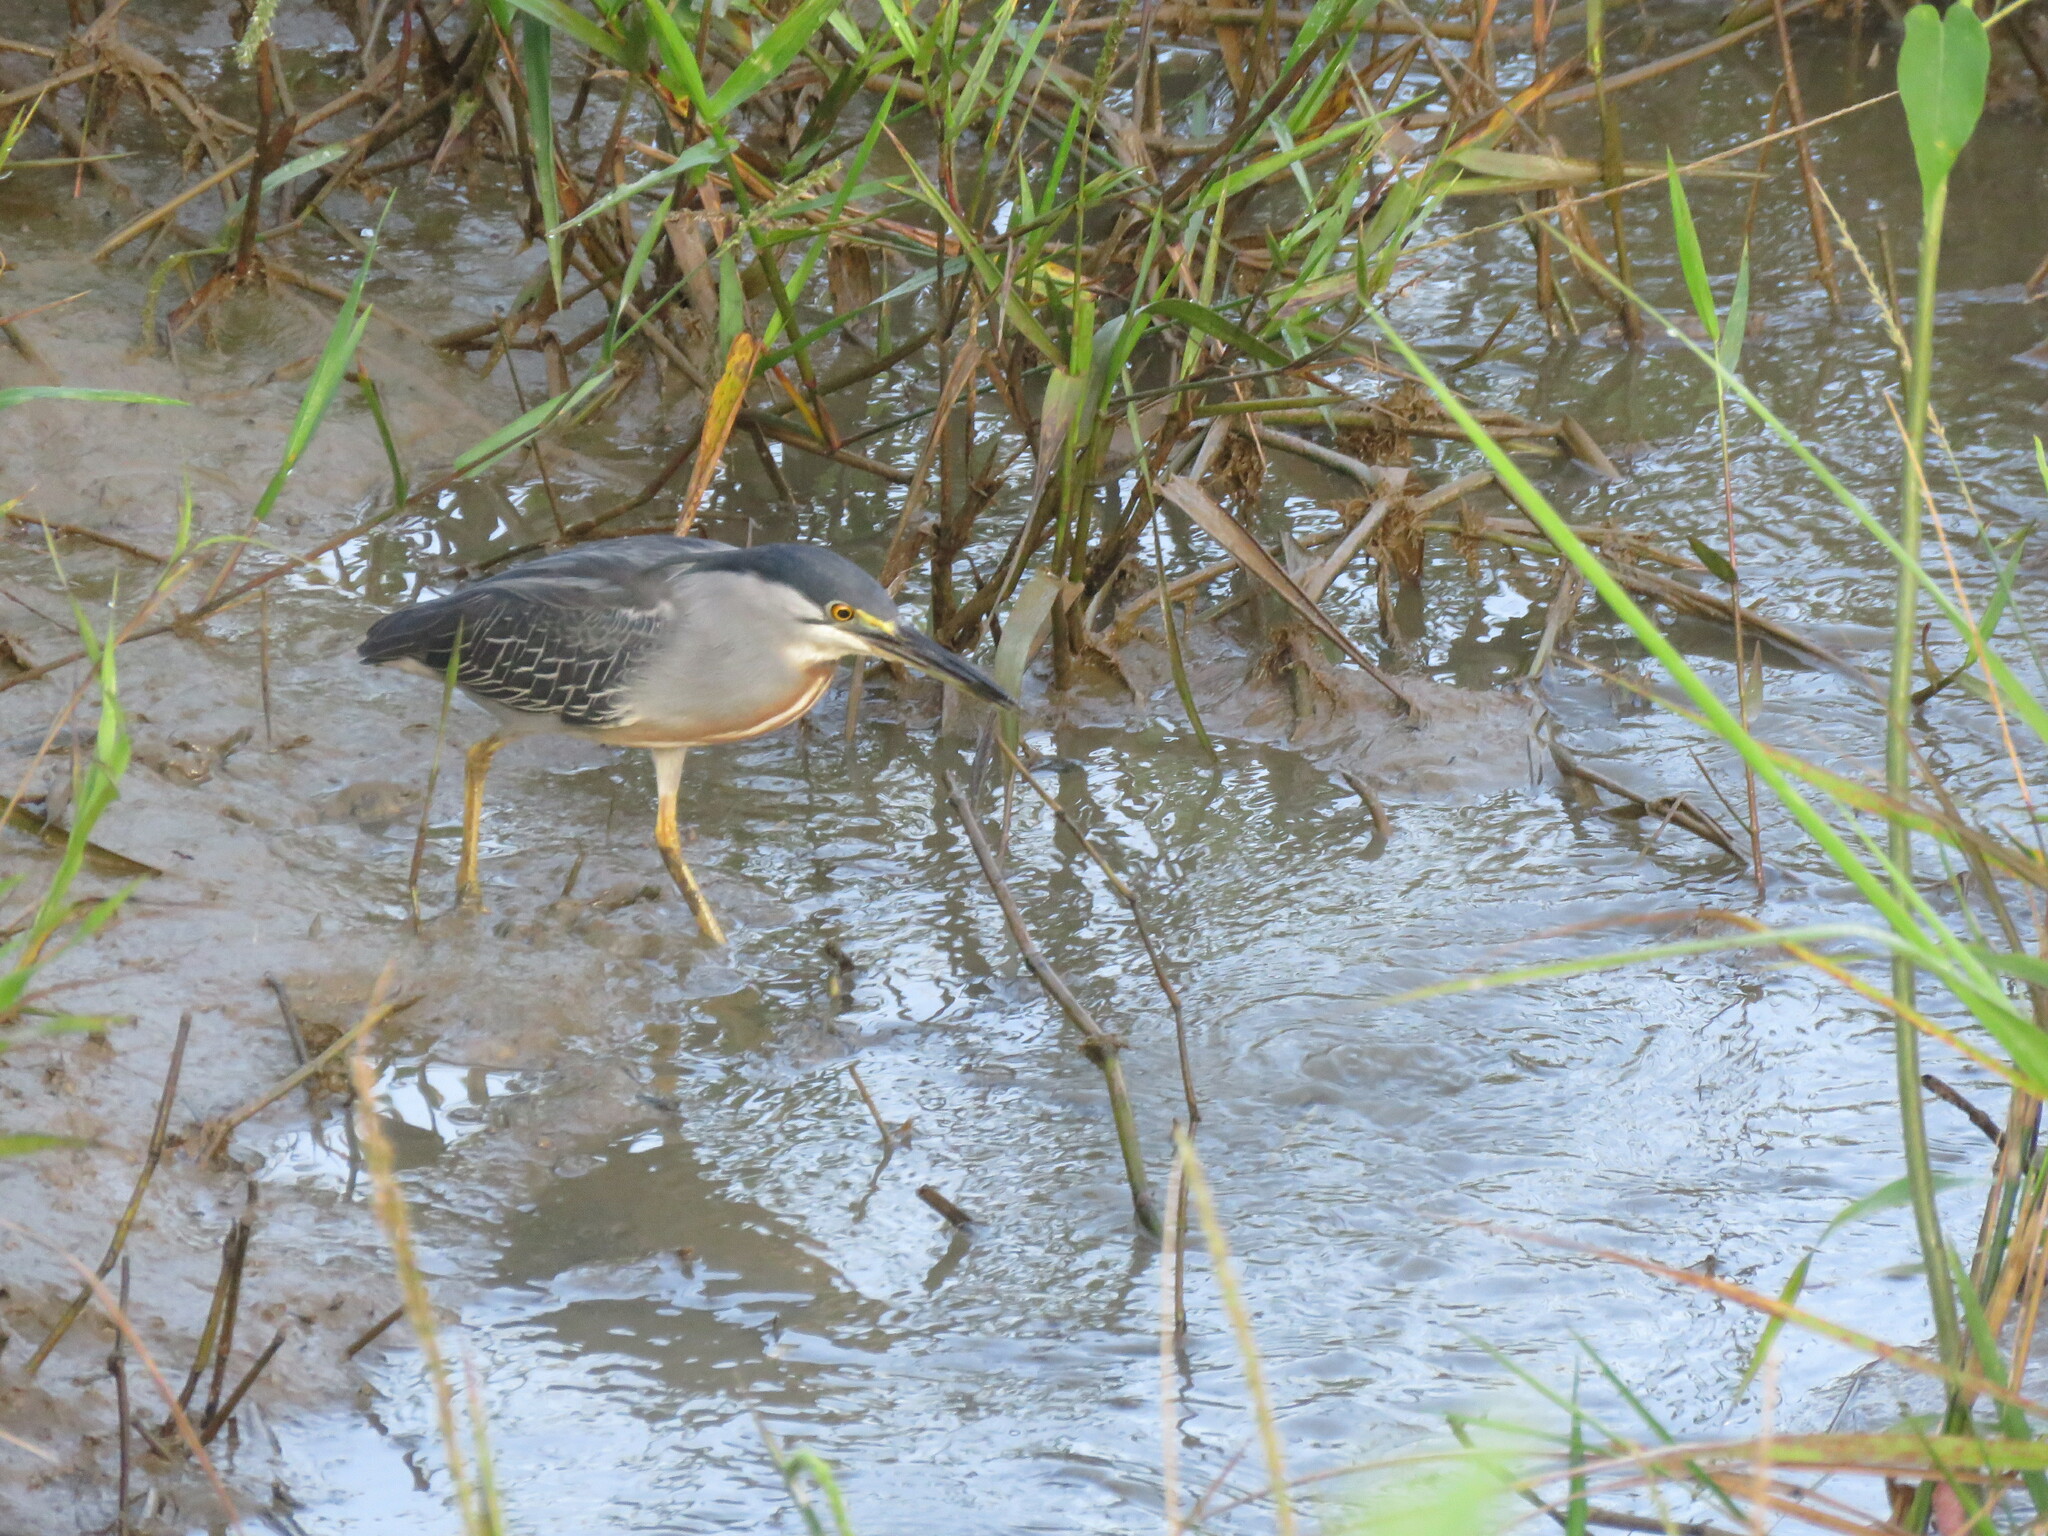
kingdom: Animalia
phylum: Chordata
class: Aves
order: Pelecaniformes
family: Ardeidae
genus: Butorides
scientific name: Butorides striata
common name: Striated heron
